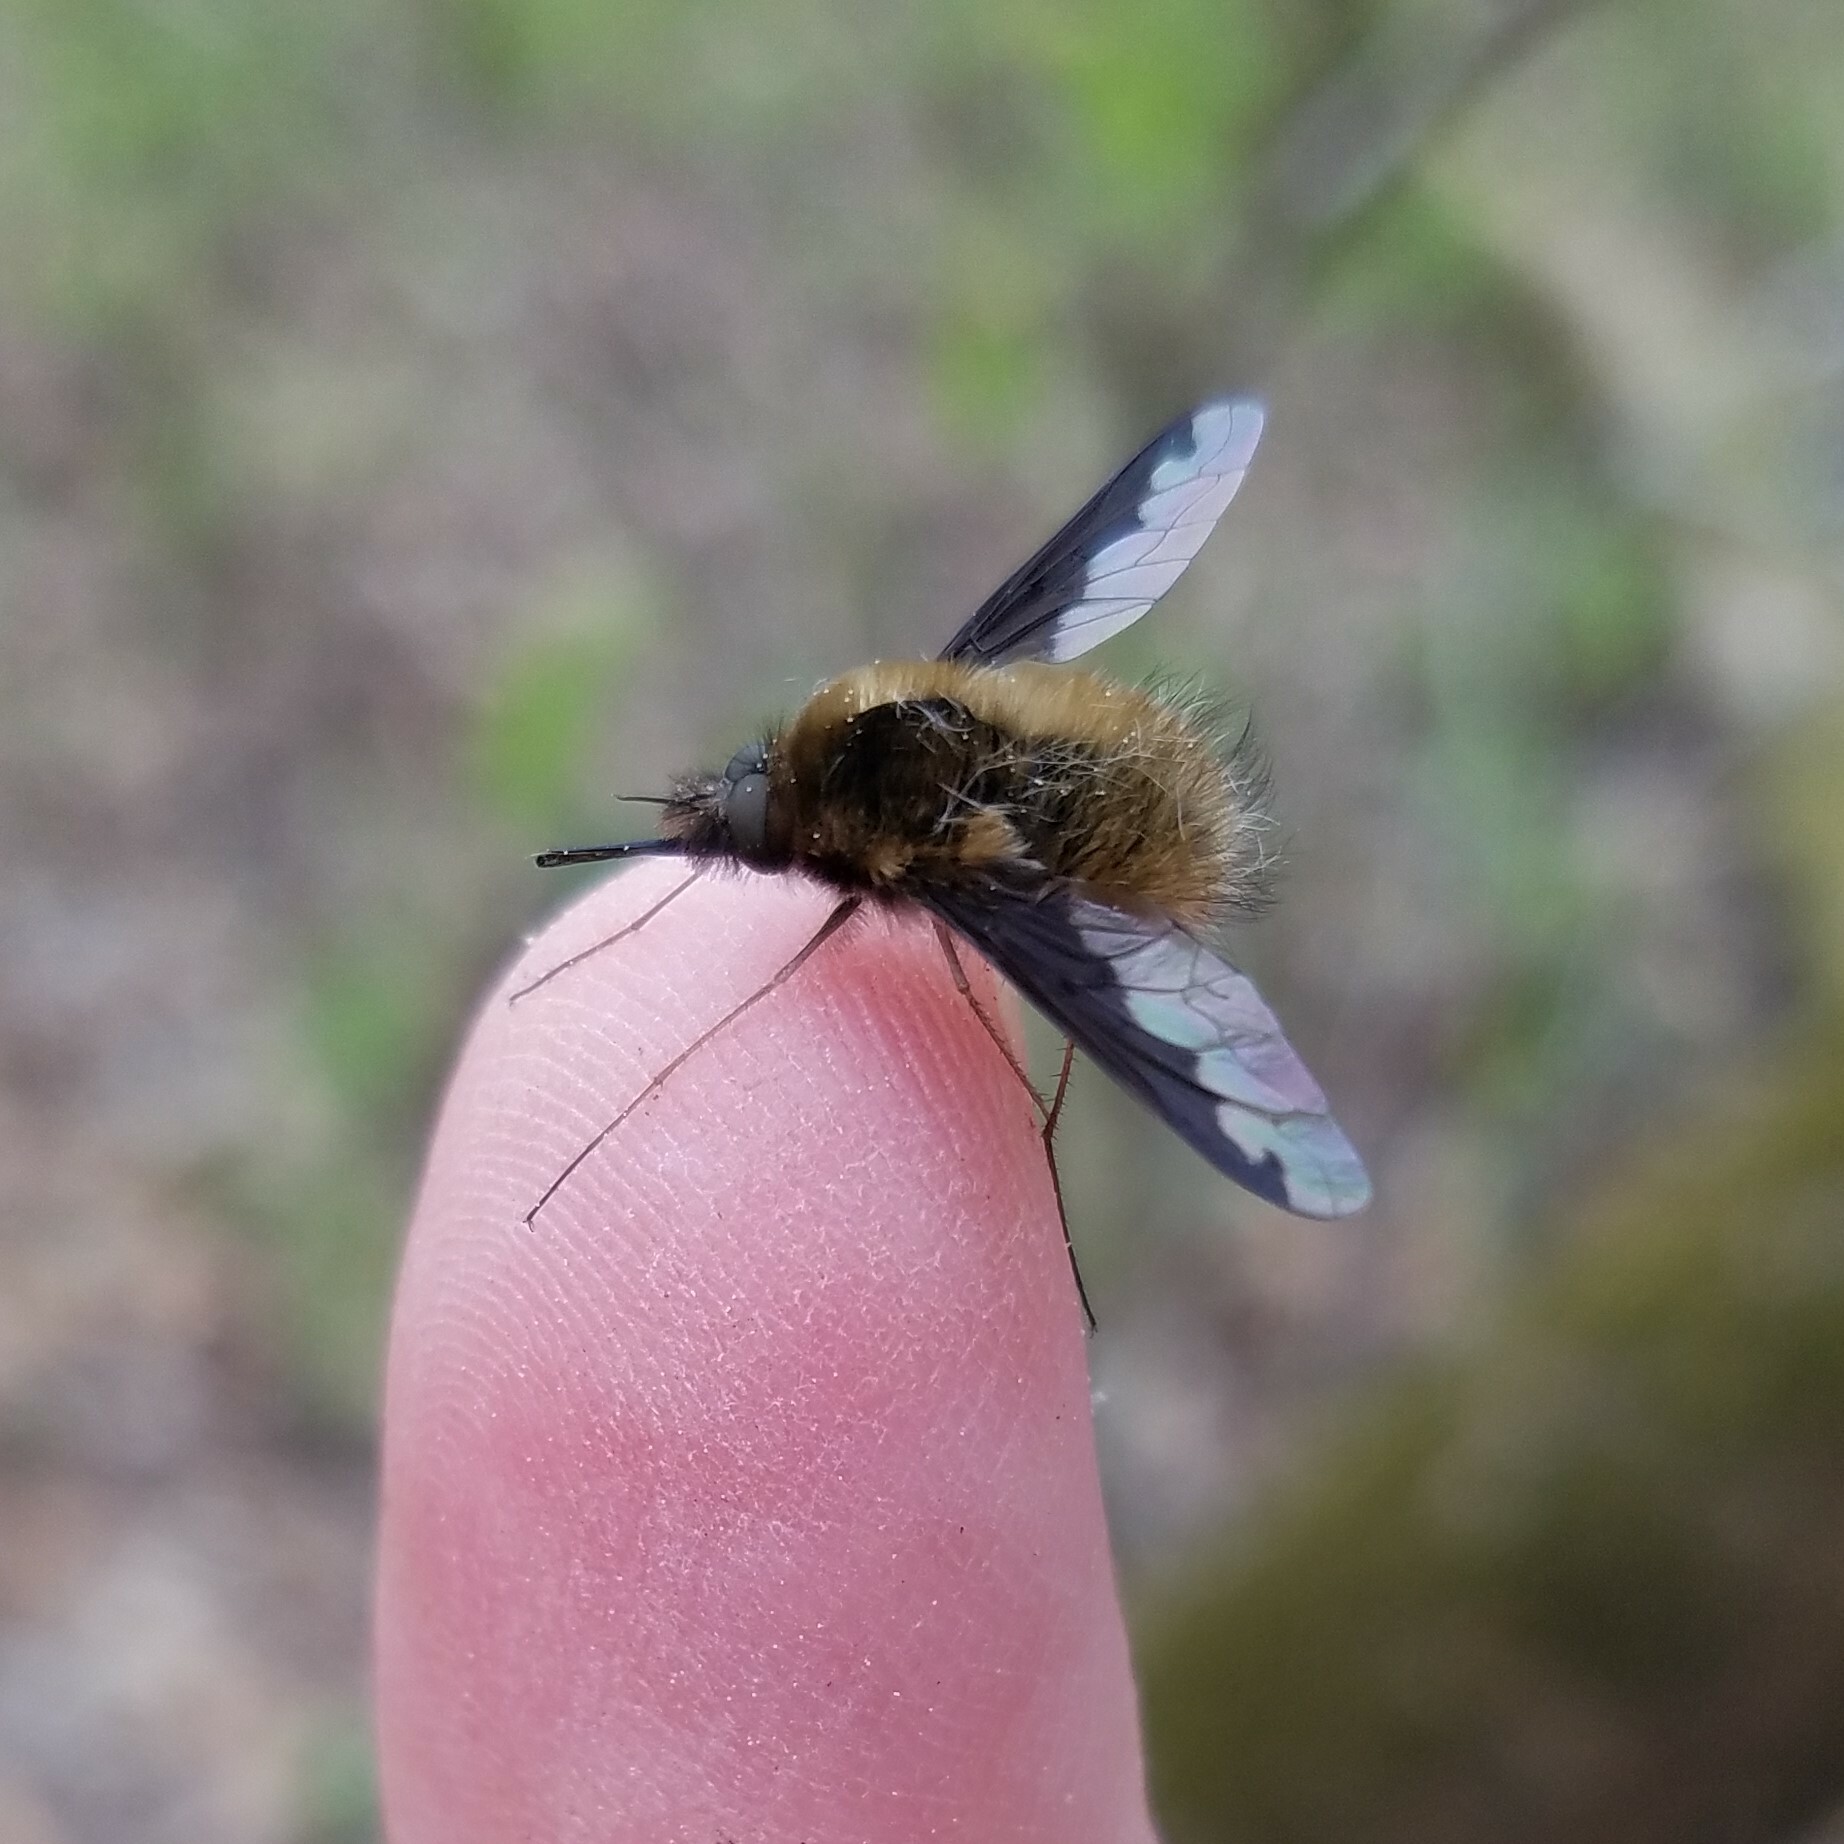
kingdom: Animalia
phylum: Arthropoda
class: Insecta
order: Diptera
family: Bombyliidae
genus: Bombylius
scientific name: Bombylius major
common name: Bee fly
